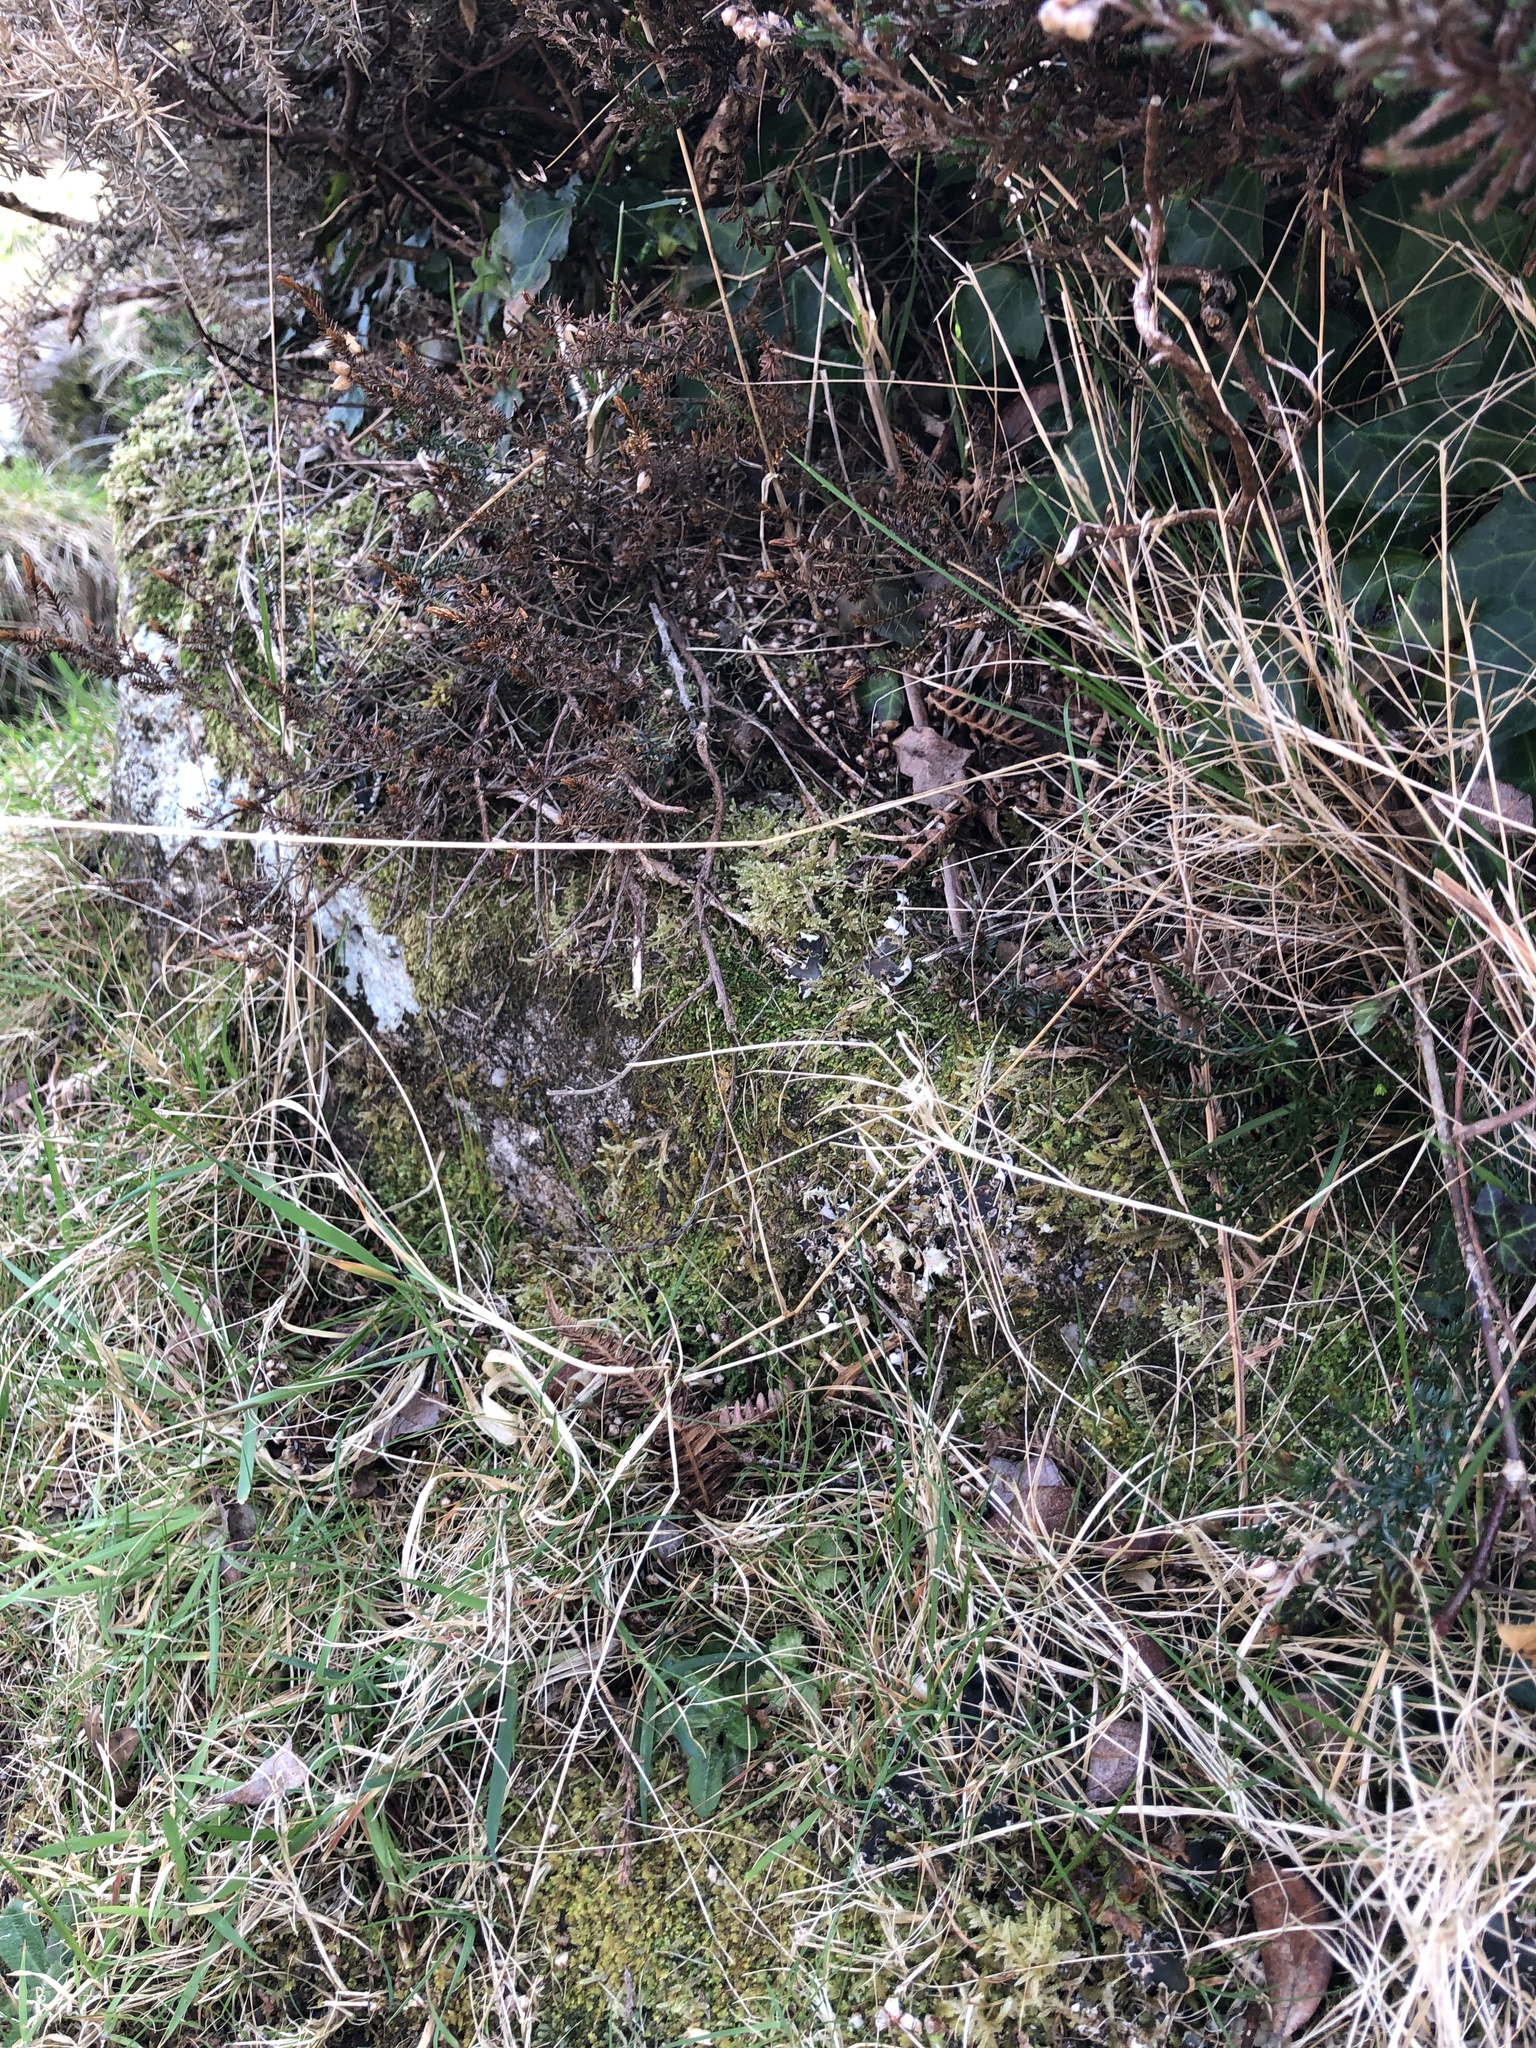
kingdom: Plantae
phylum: Marchantiophyta
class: Jungermanniopsida
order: Jungermanniales
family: Saccogynaceae
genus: Saccogyna
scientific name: Saccogyna viticulosa
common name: Straggling pouchwort
